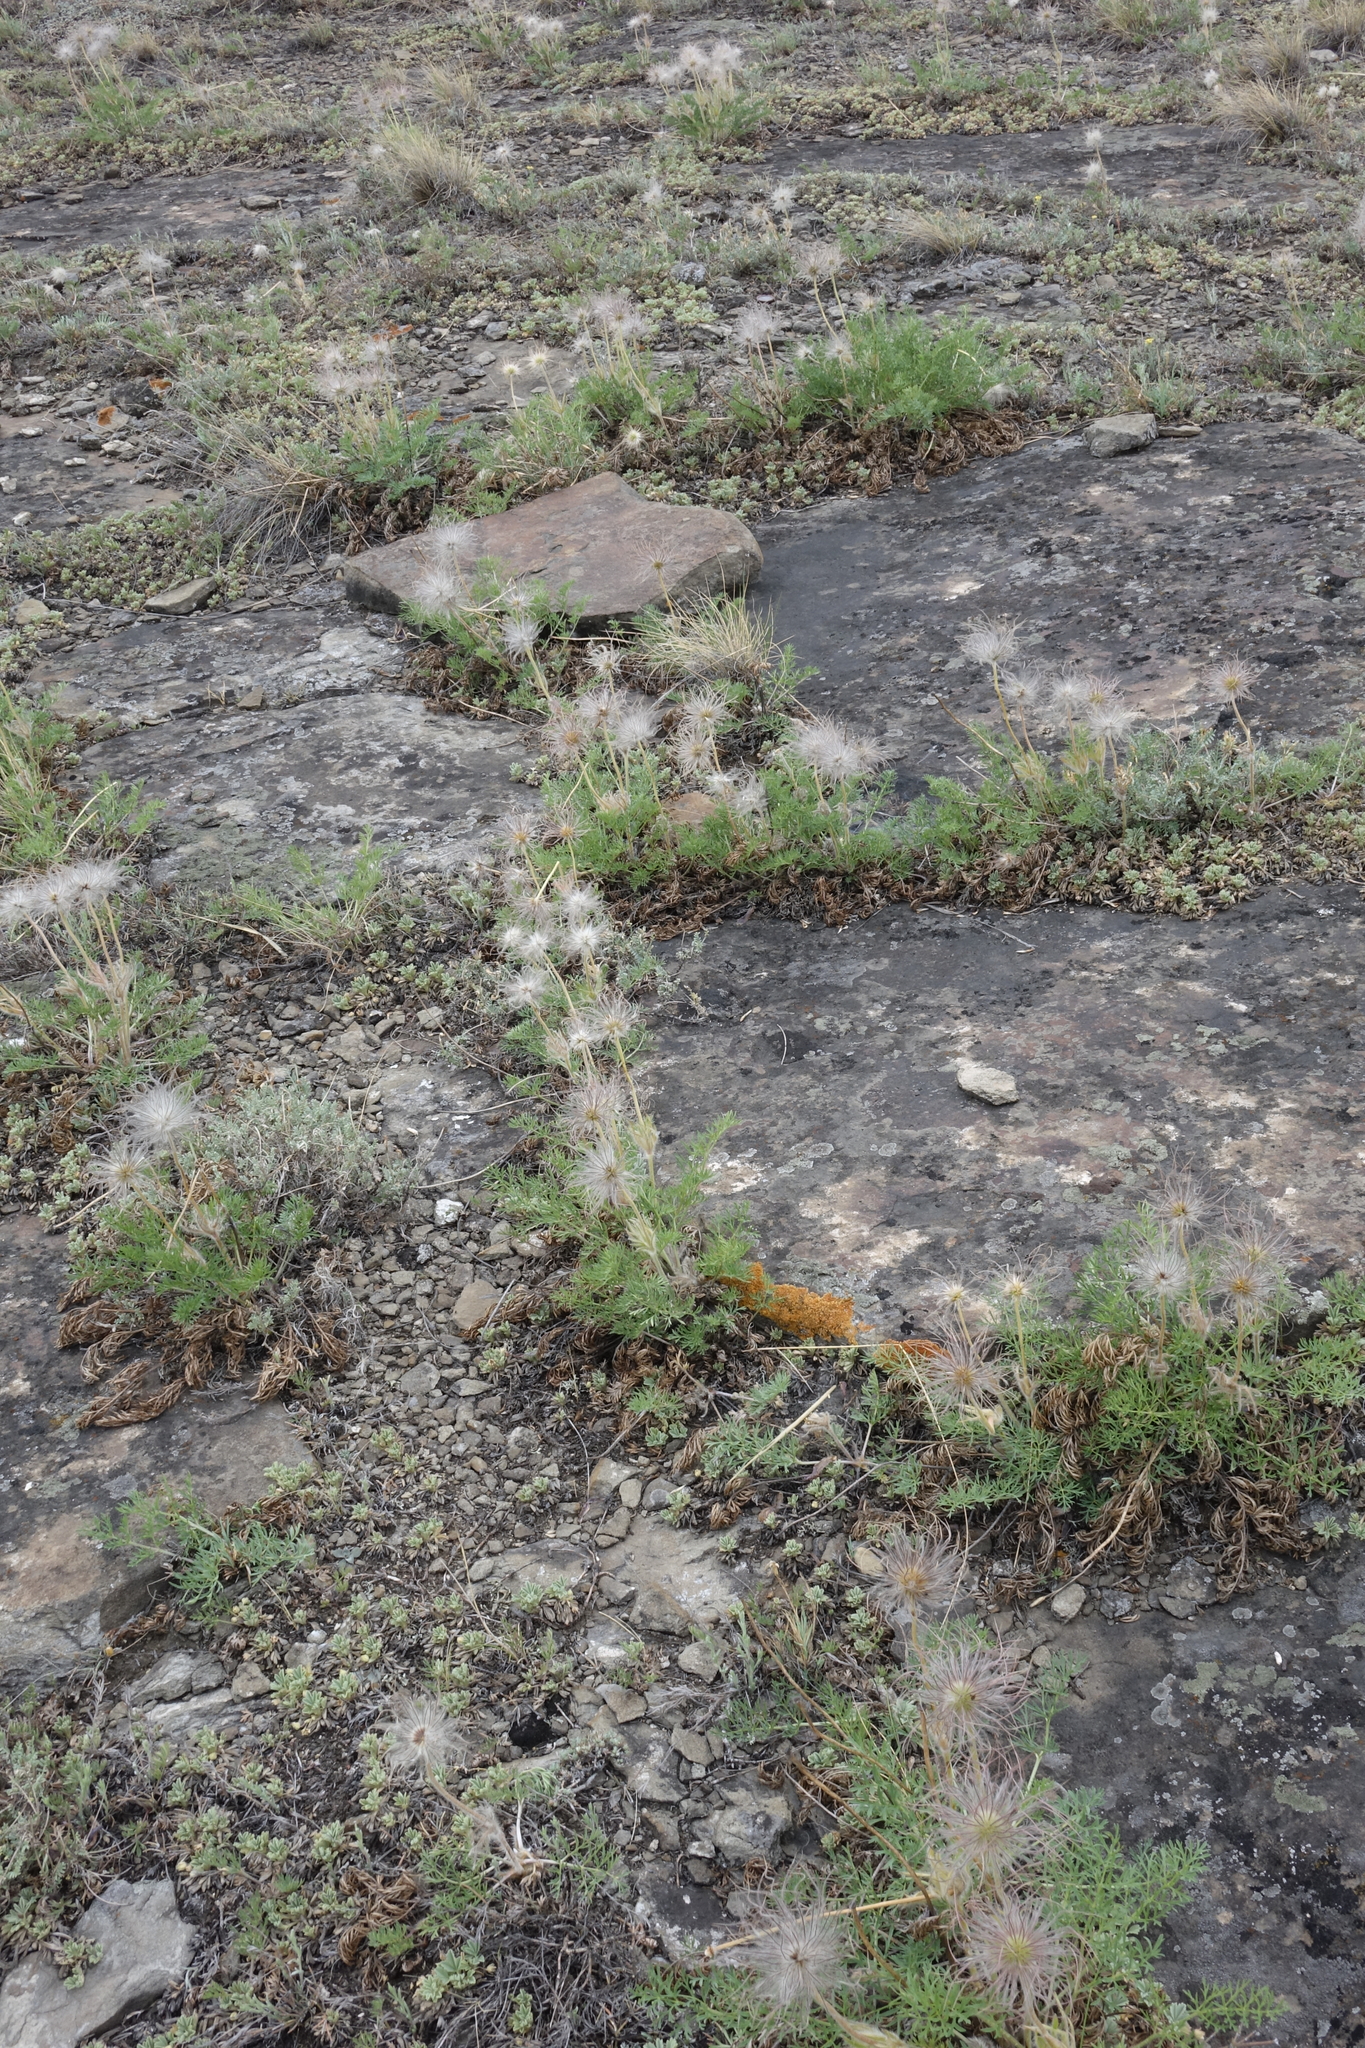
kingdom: Plantae
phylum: Tracheophyta
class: Magnoliopsida
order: Ranunculales
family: Ranunculaceae
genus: Pulsatilla
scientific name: Pulsatilla turczaninovii
